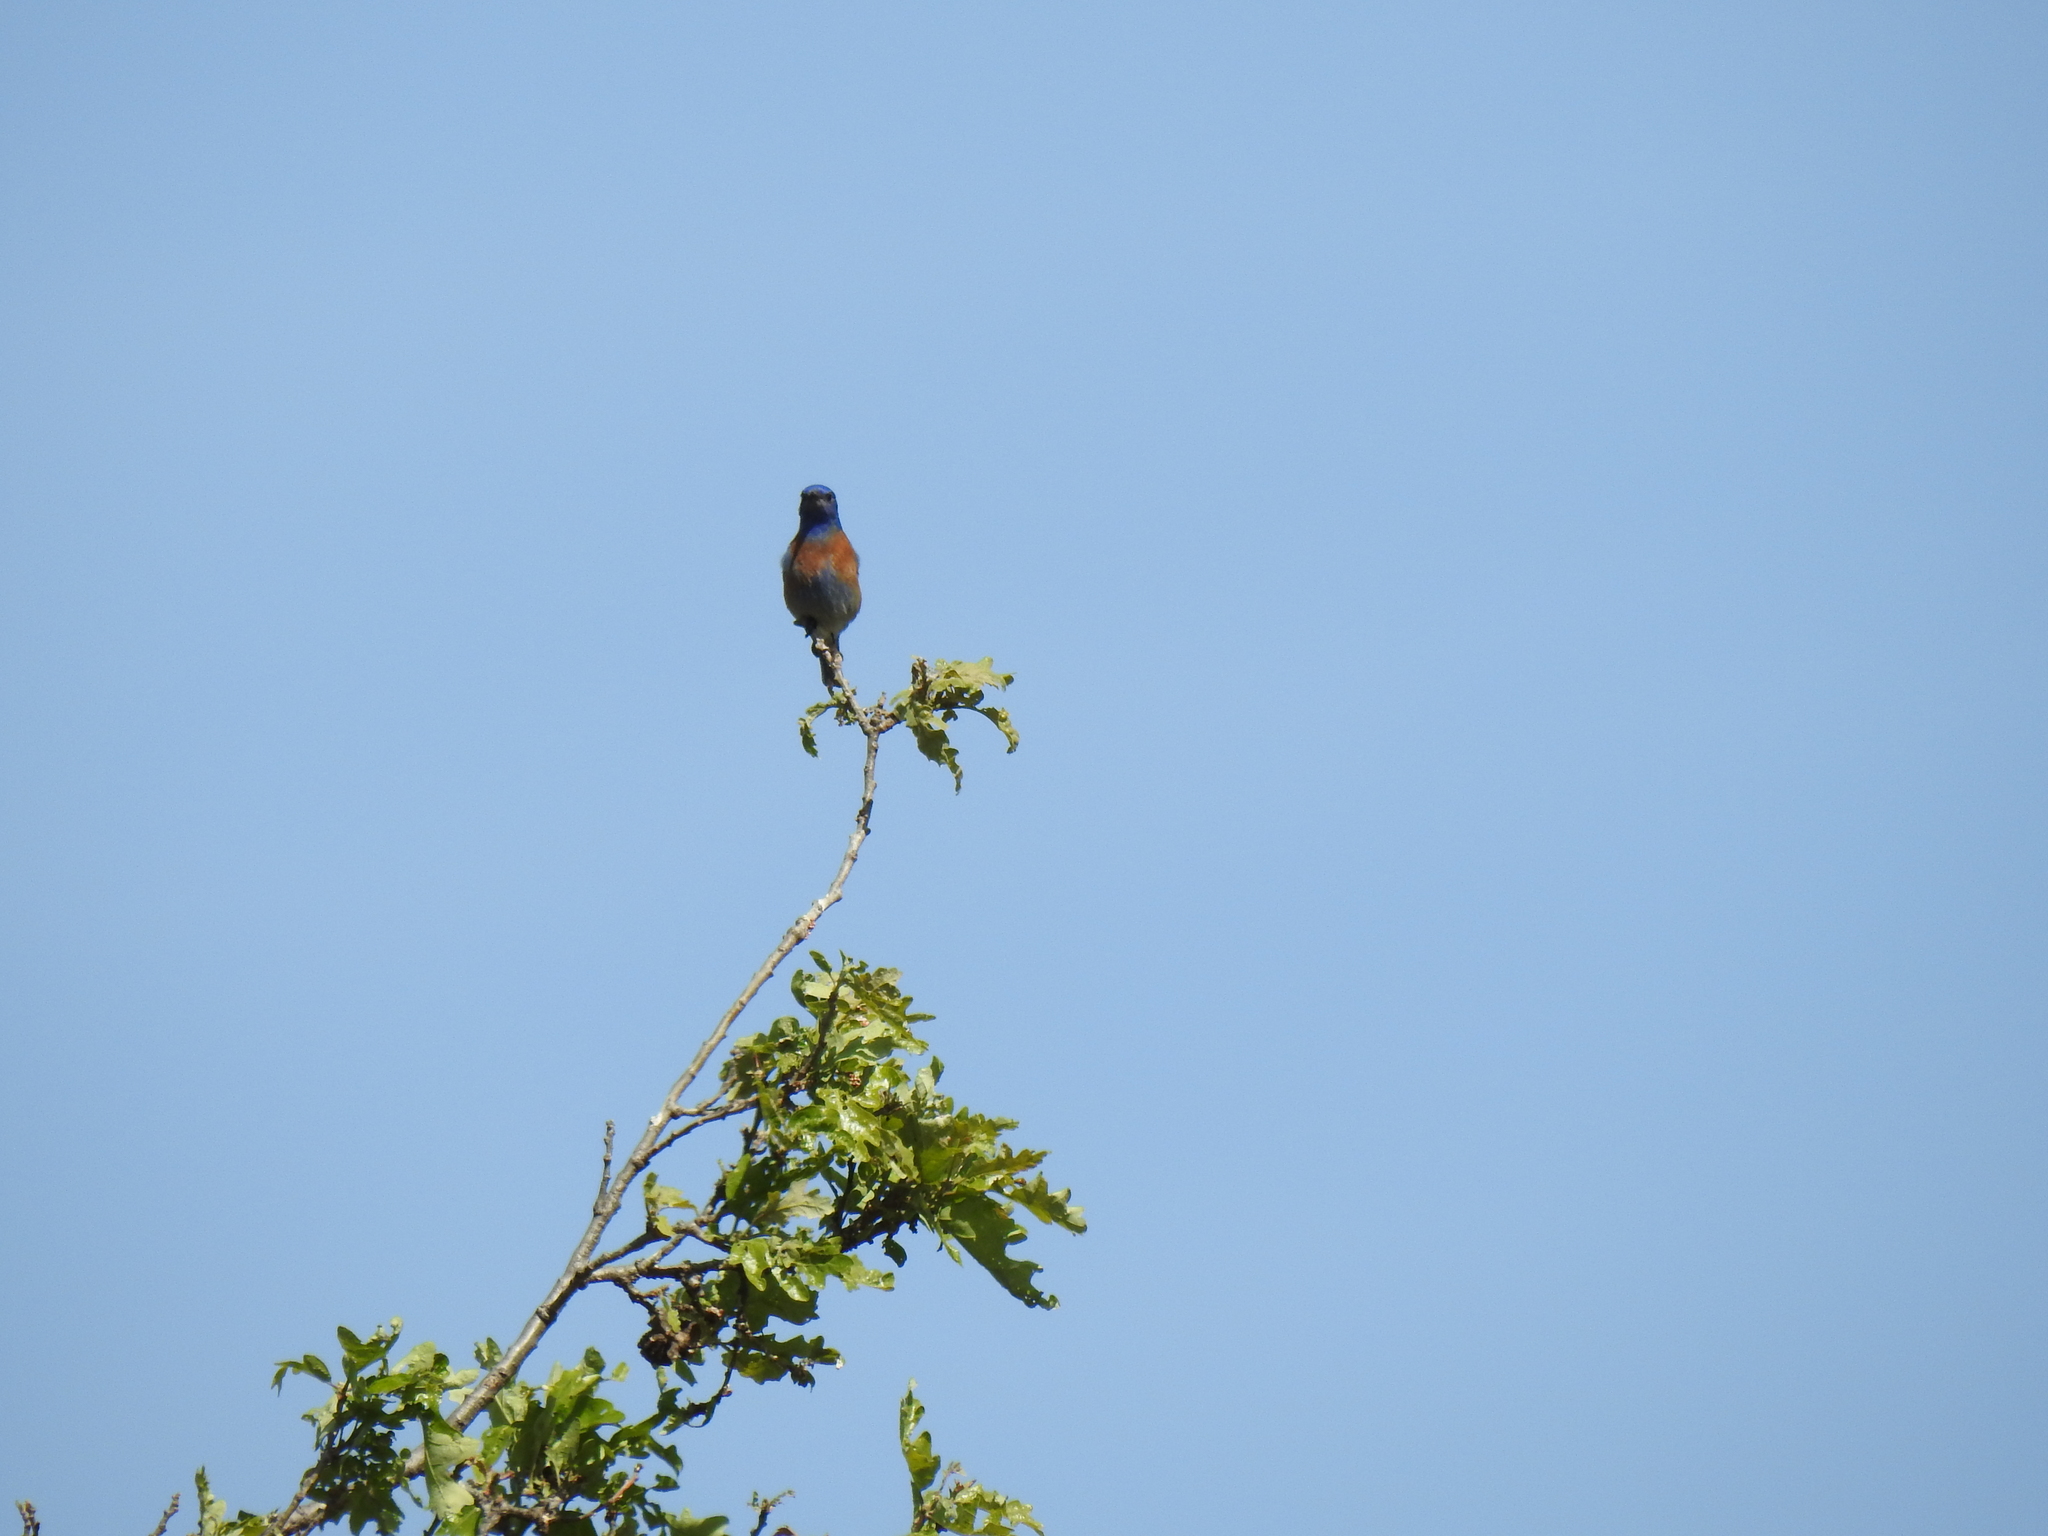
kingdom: Animalia
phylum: Chordata
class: Aves
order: Passeriformes
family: Turdidae
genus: Sialia
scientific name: Sialia mexicana
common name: Western bluebird
